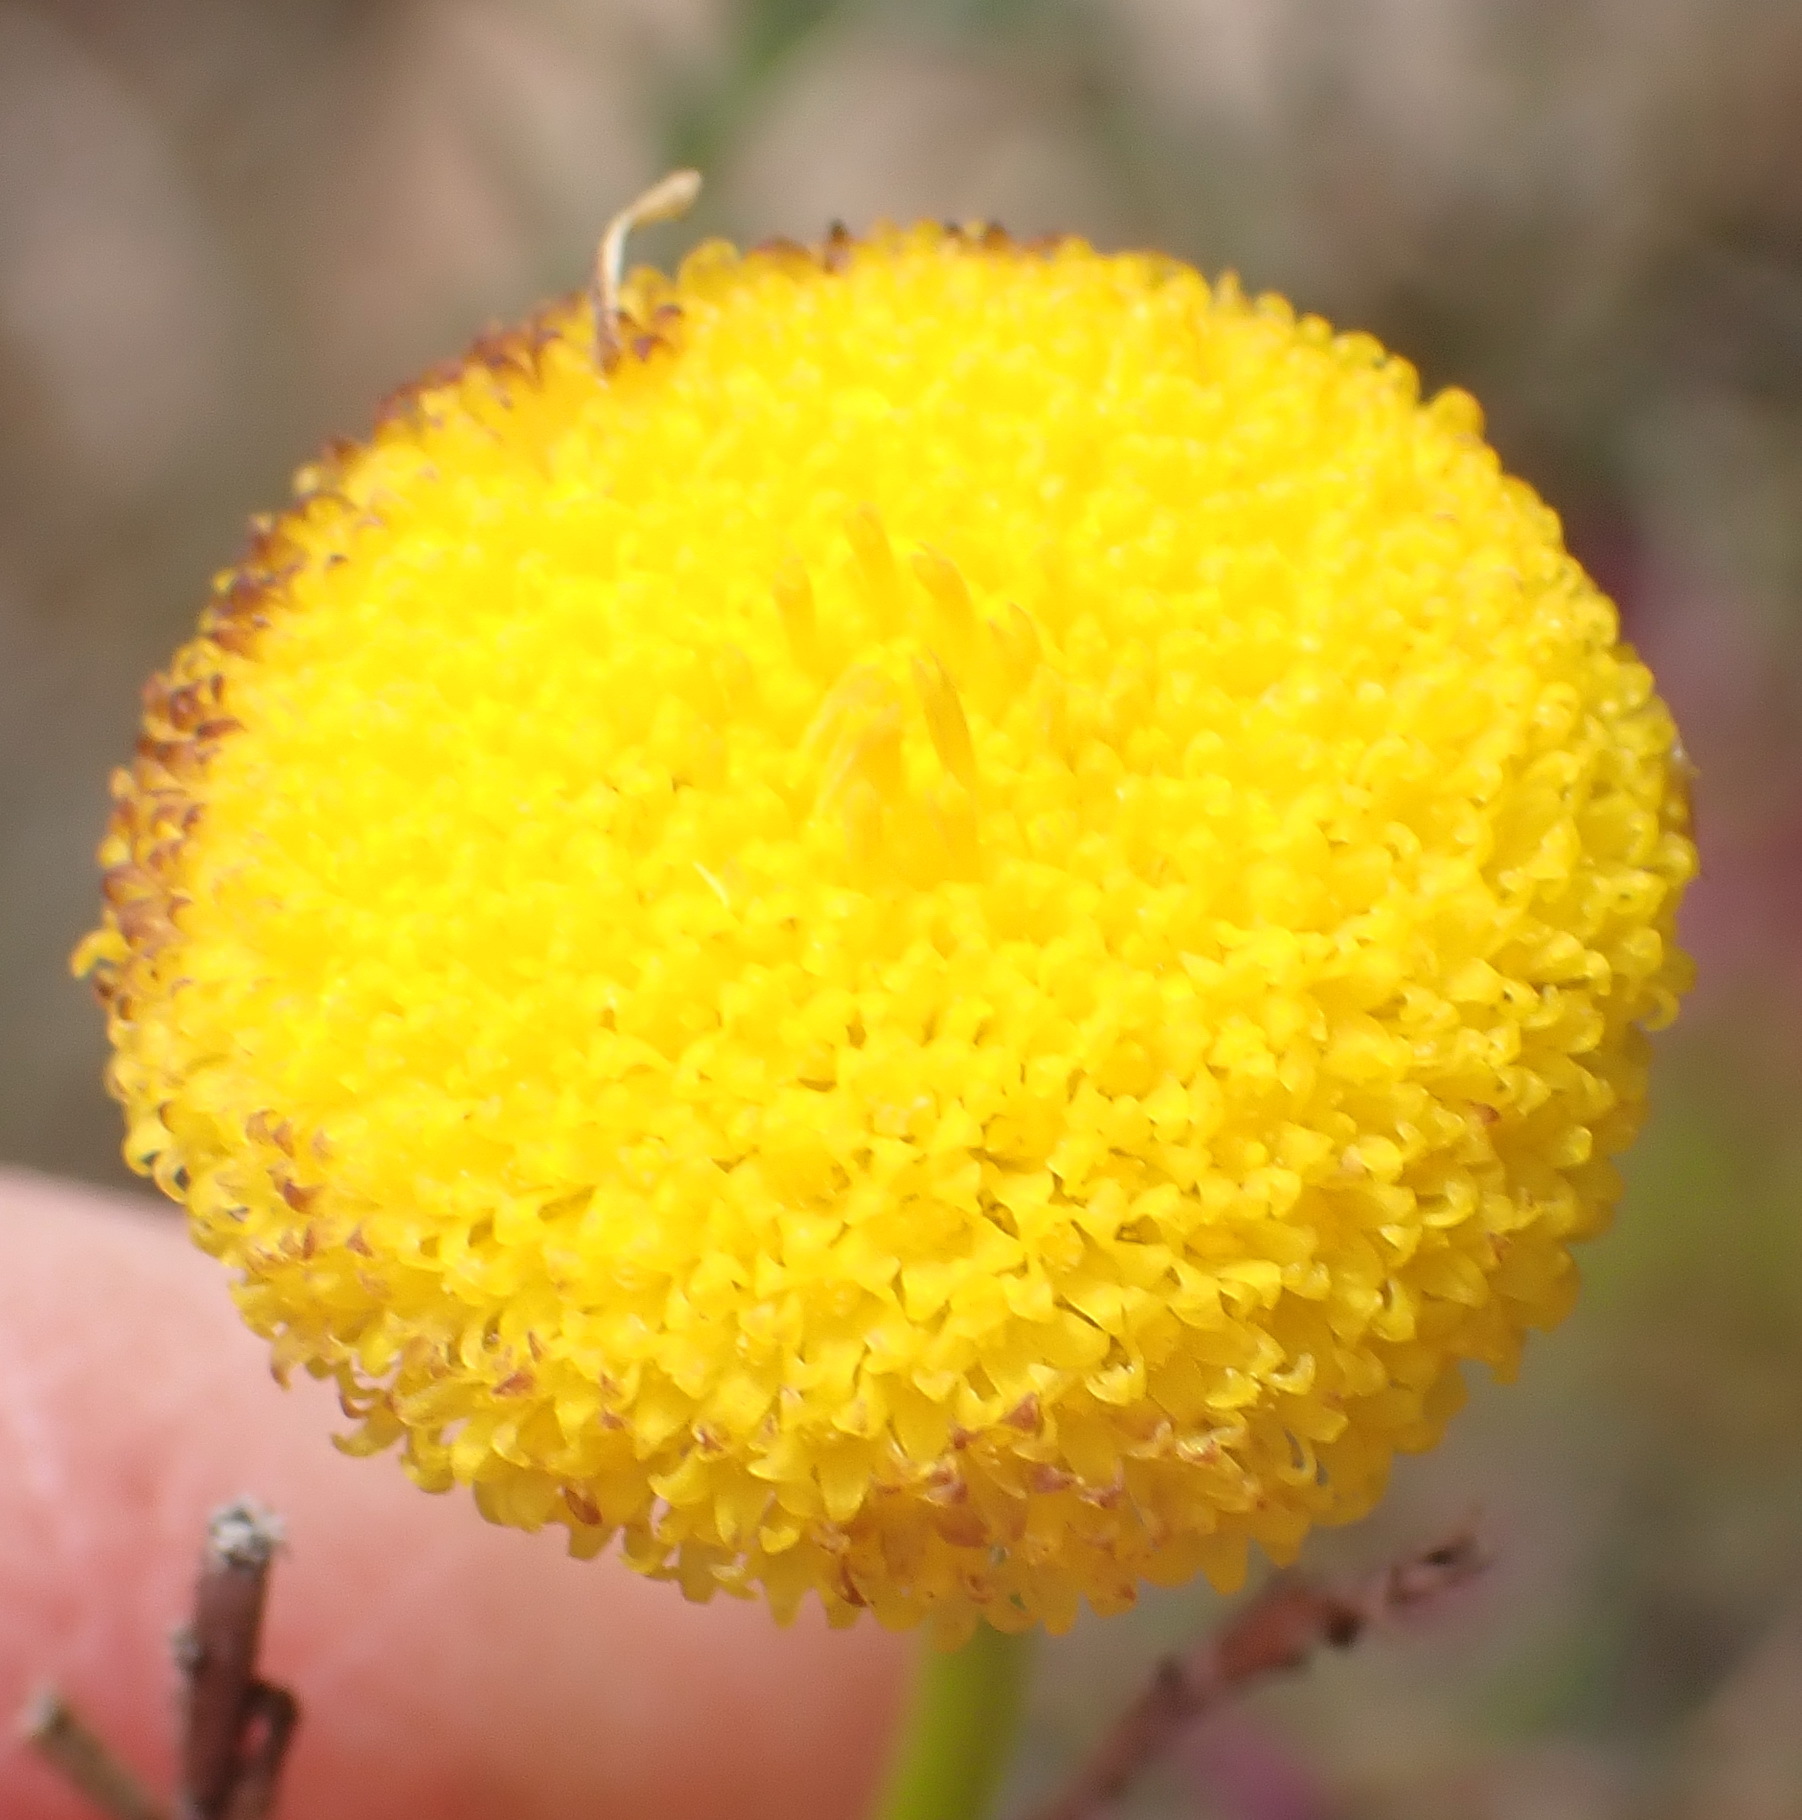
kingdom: Plantae
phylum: Tracheophyta
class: Magnoliopsida
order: Asterales
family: Asteraceae
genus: Chrysocoma
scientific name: Chrysocoma ciliata
